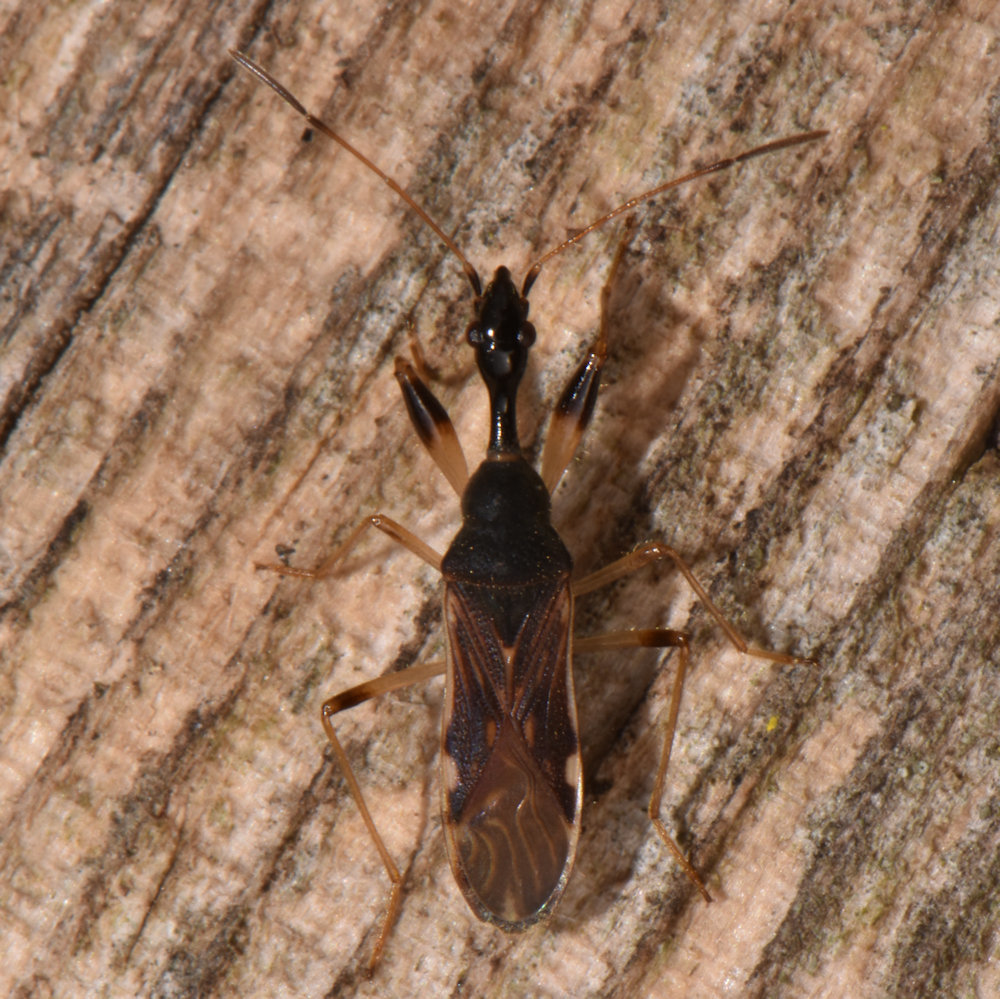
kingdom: Animalia
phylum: Arthropoda
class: Insecta
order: Hemiptera
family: Rhyparochromidae
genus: Myodocha
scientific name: Myodocha serripes
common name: Long-necked seed bug
